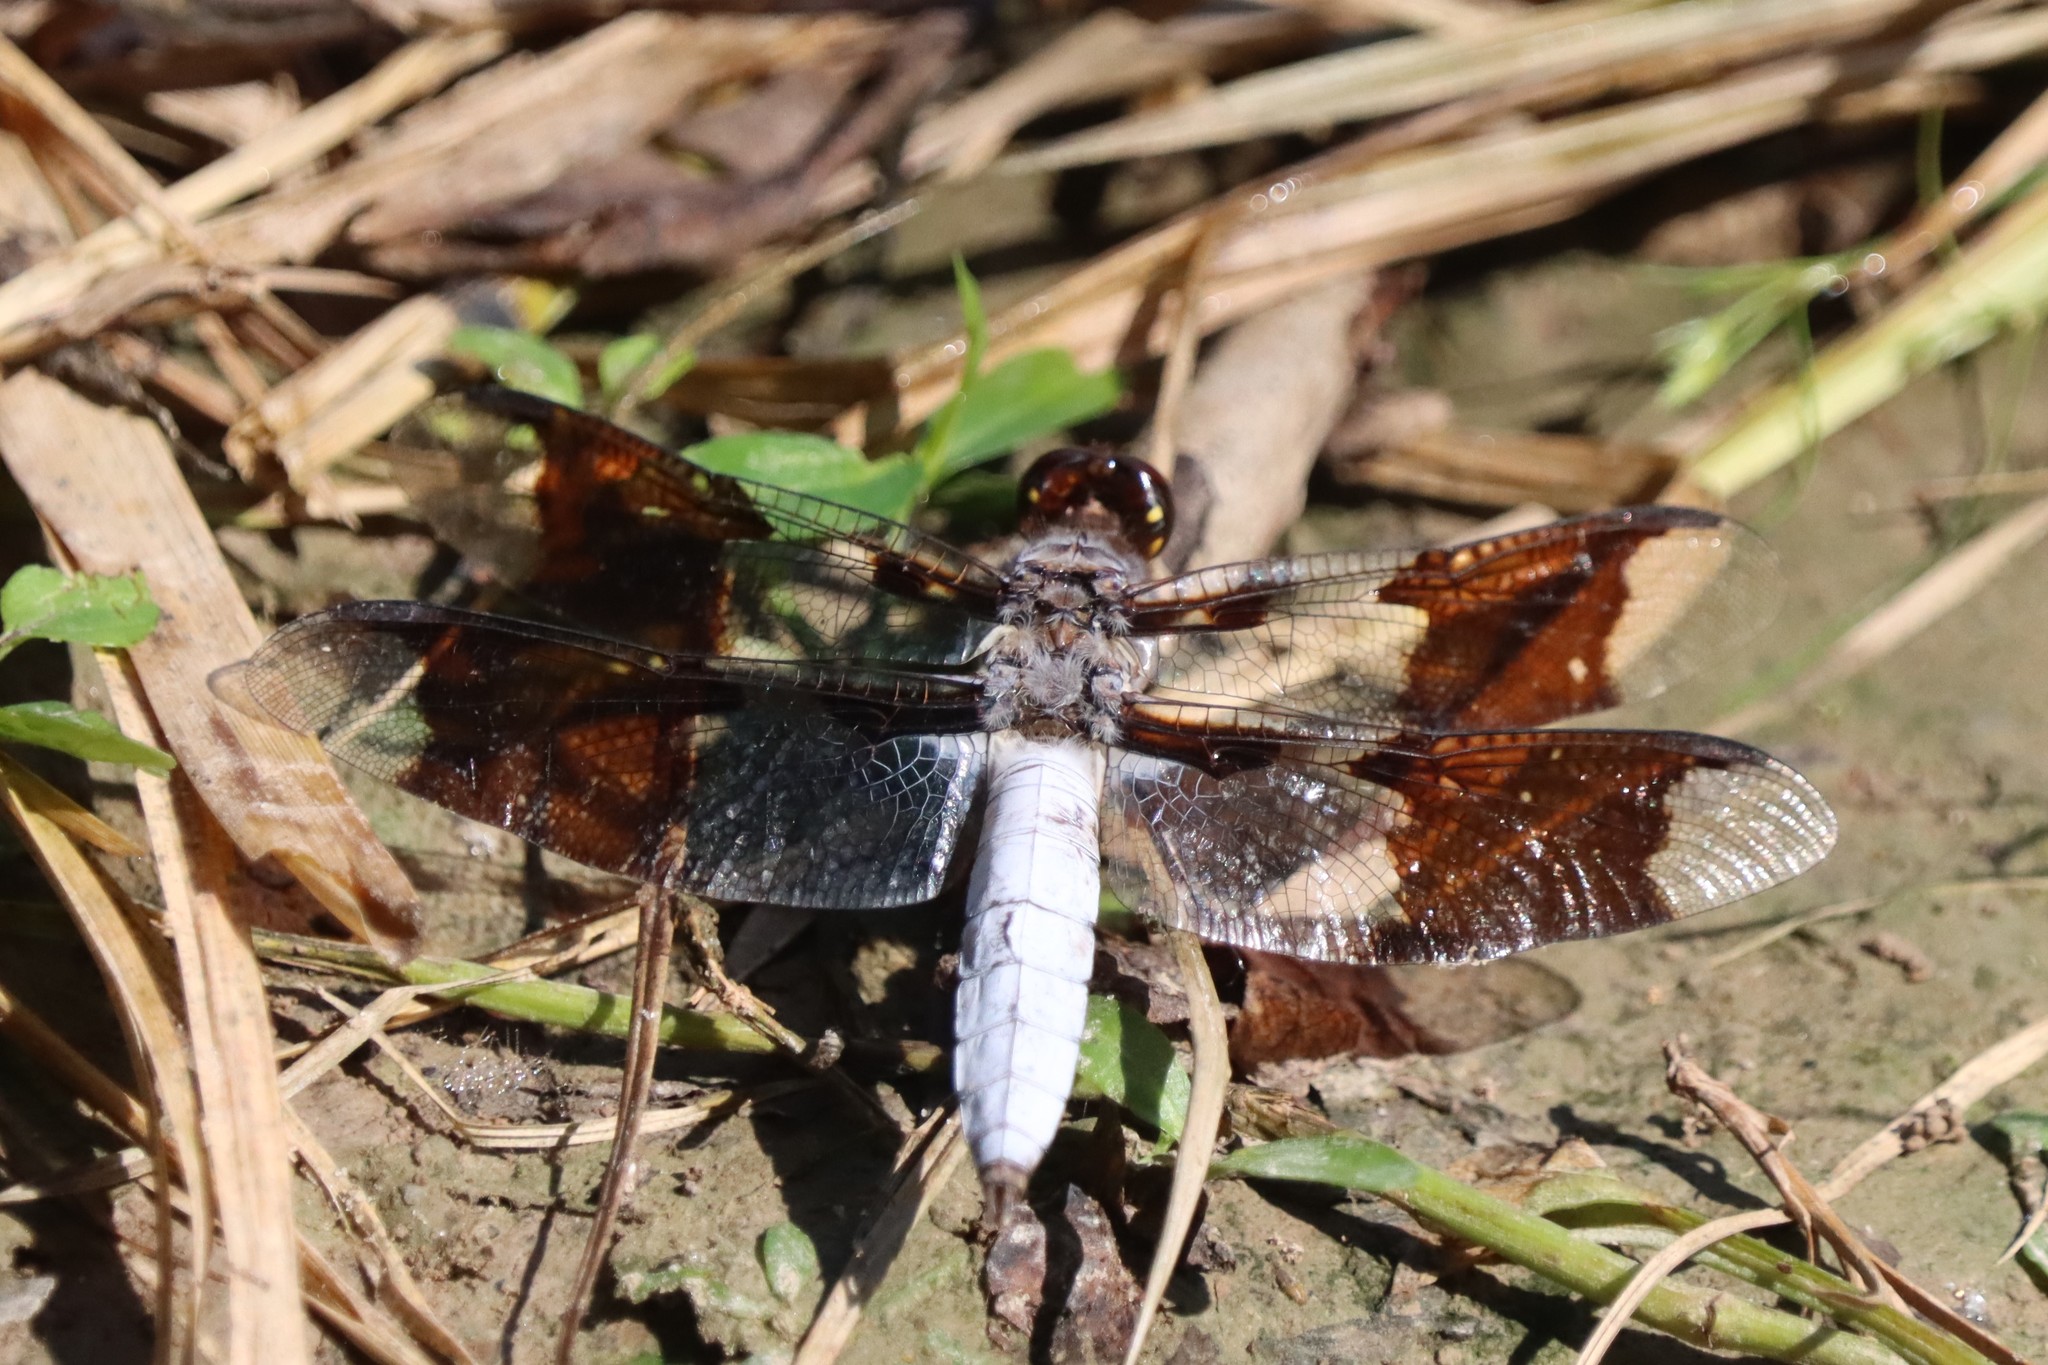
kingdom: Animalia
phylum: Arthropoda
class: Insecta
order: Odonata
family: Libellulidae
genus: Plathemis
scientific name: Plathemis lydia
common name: Common whitetail
